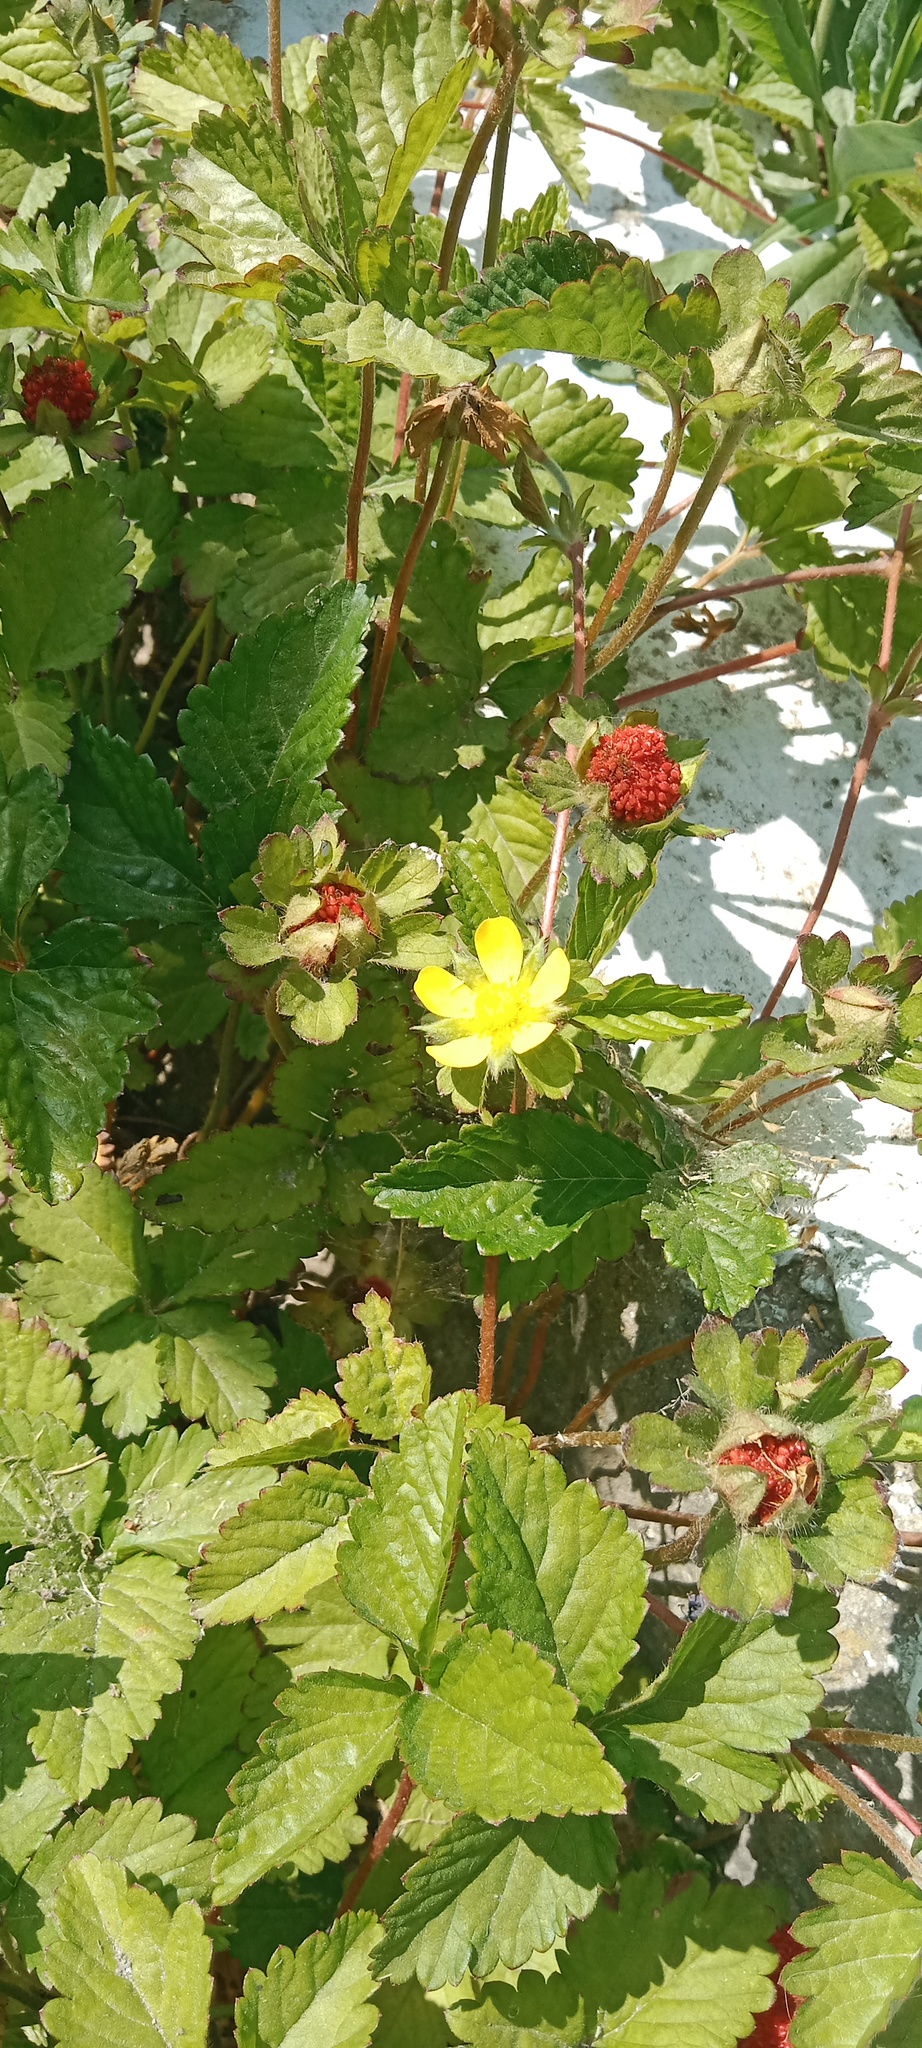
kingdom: Plantae
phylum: Tracheophyta
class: Magnoliopsida
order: Rosales
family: Rosaceae
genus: Potentilla
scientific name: Potentilla indica
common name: Yellow-flowered strawberry
